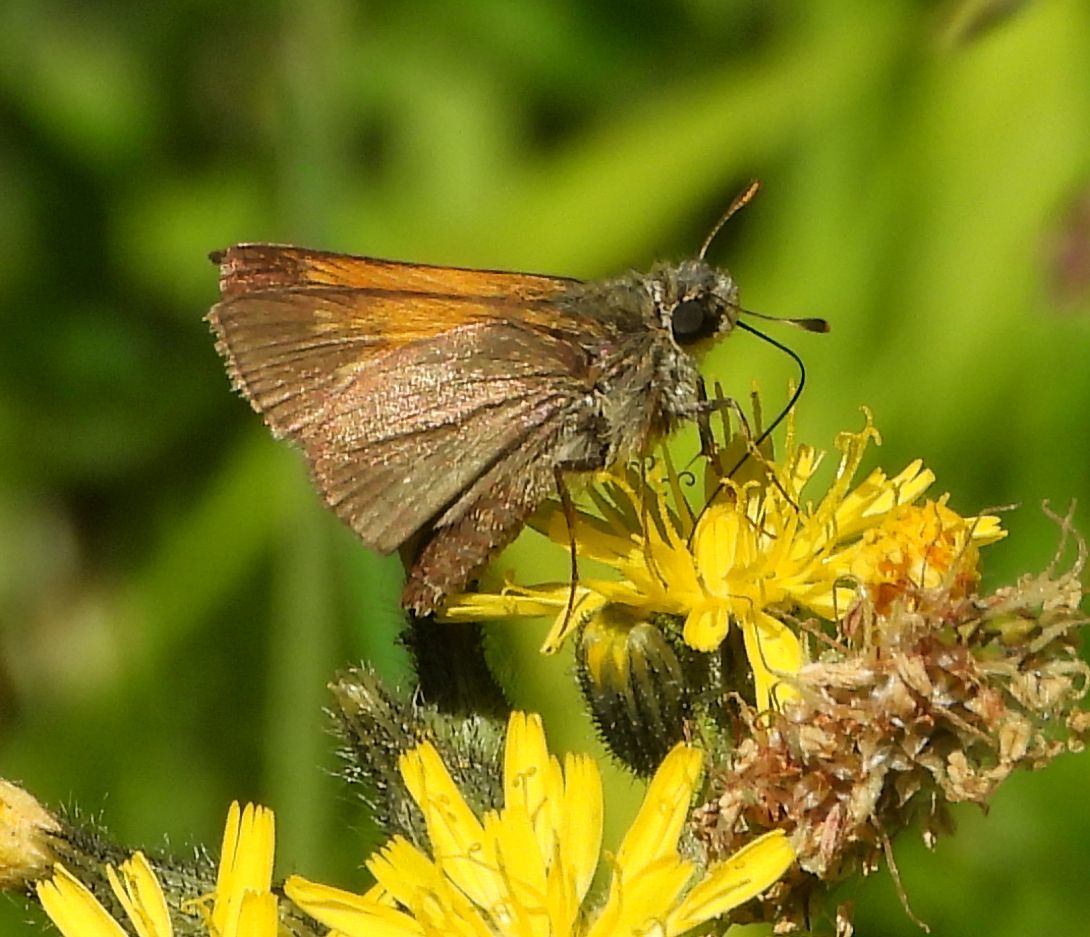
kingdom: Animalia
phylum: Arthropoda
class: Insecta
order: Lepidoptera
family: Hesperiidae
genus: Polites
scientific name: Polites themistocles
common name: Tawny-edged skipper
